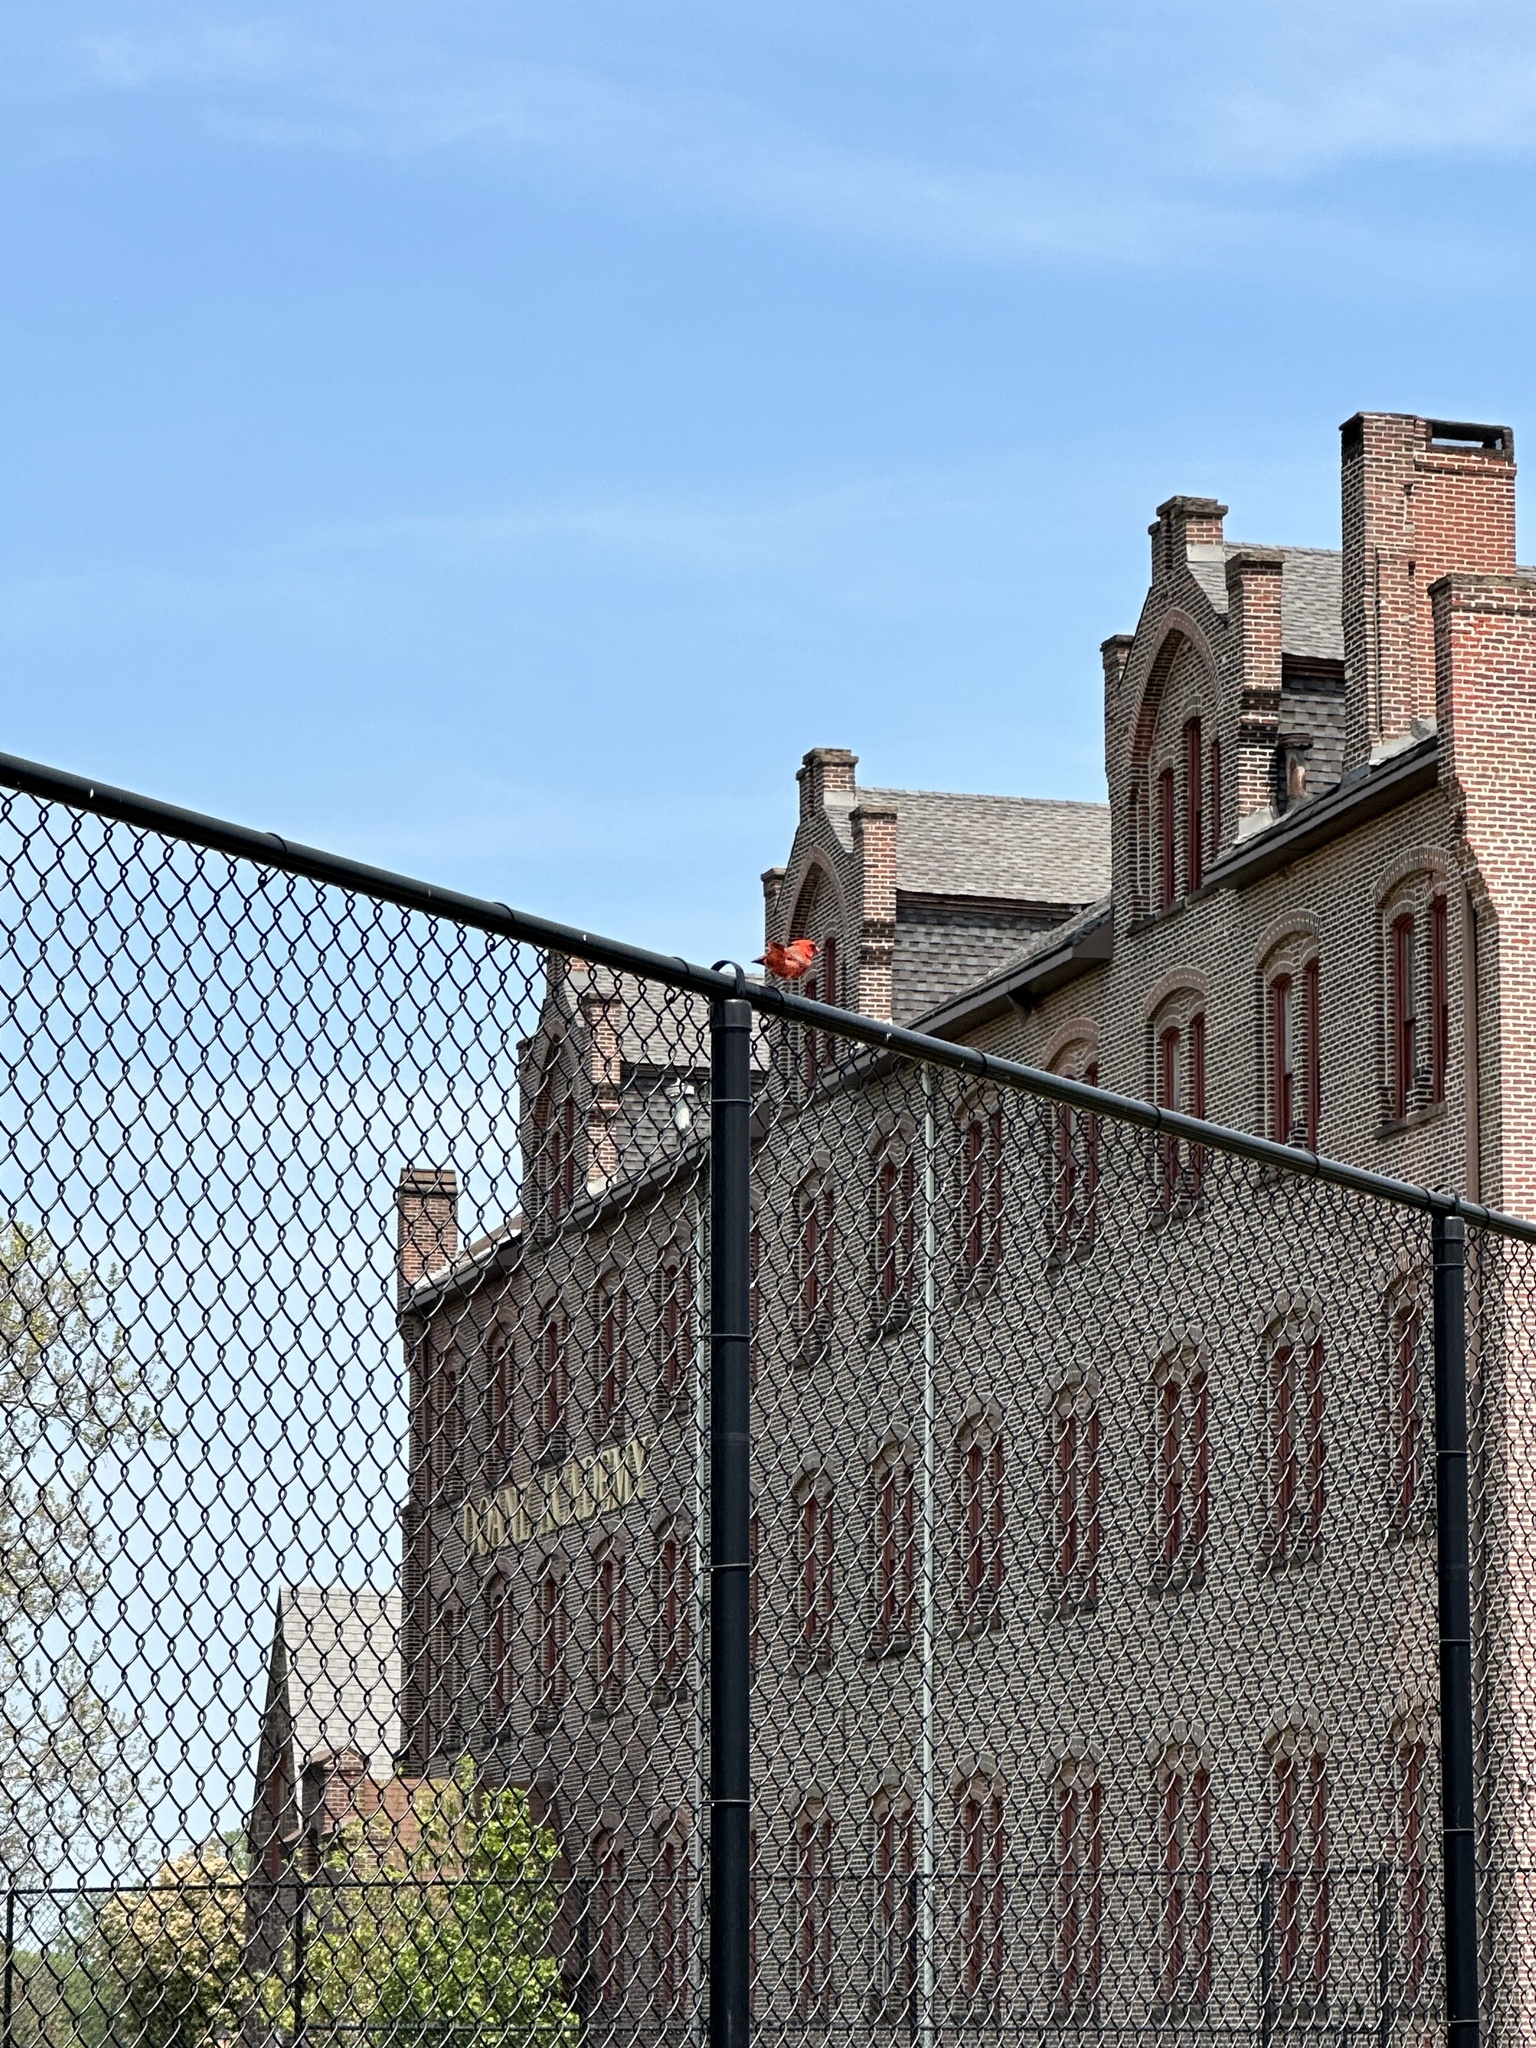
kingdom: Animalia
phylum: Chordata
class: Aves
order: Passeriformes
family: Cardinalidae
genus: Cardinalis
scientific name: Cardinalis cardinalis
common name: Northern cardinal
